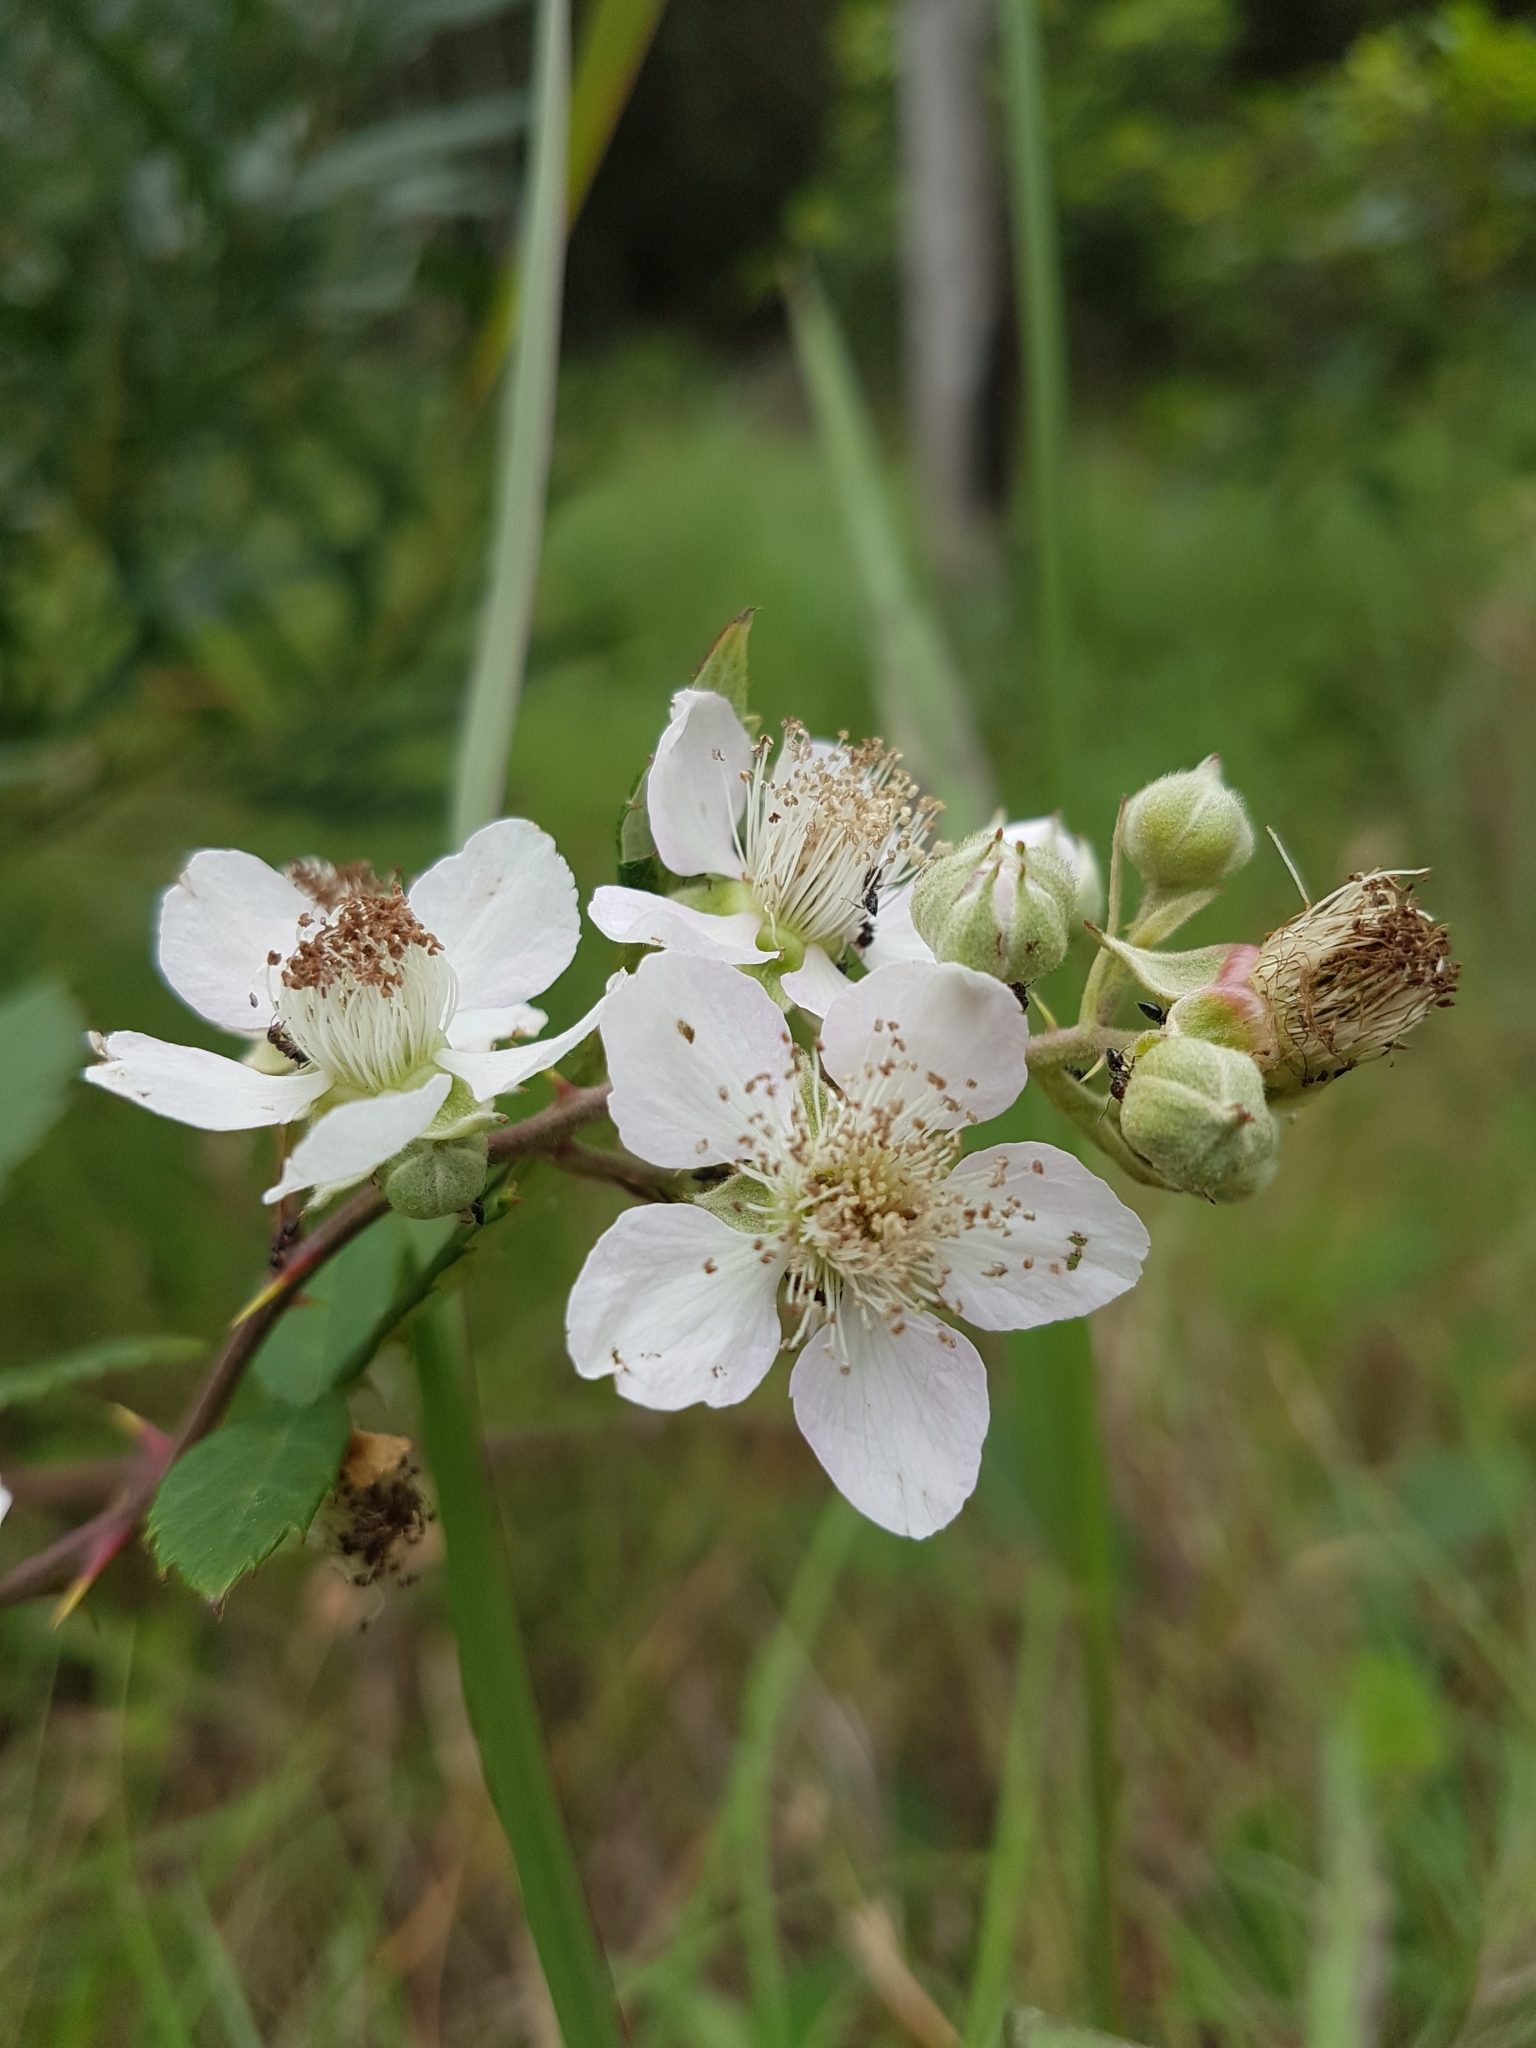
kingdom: Plantae
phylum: Tracheophyta
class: Magnoliopsida
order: Rosales
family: Rosaceae
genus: Rubus
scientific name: Rubus
